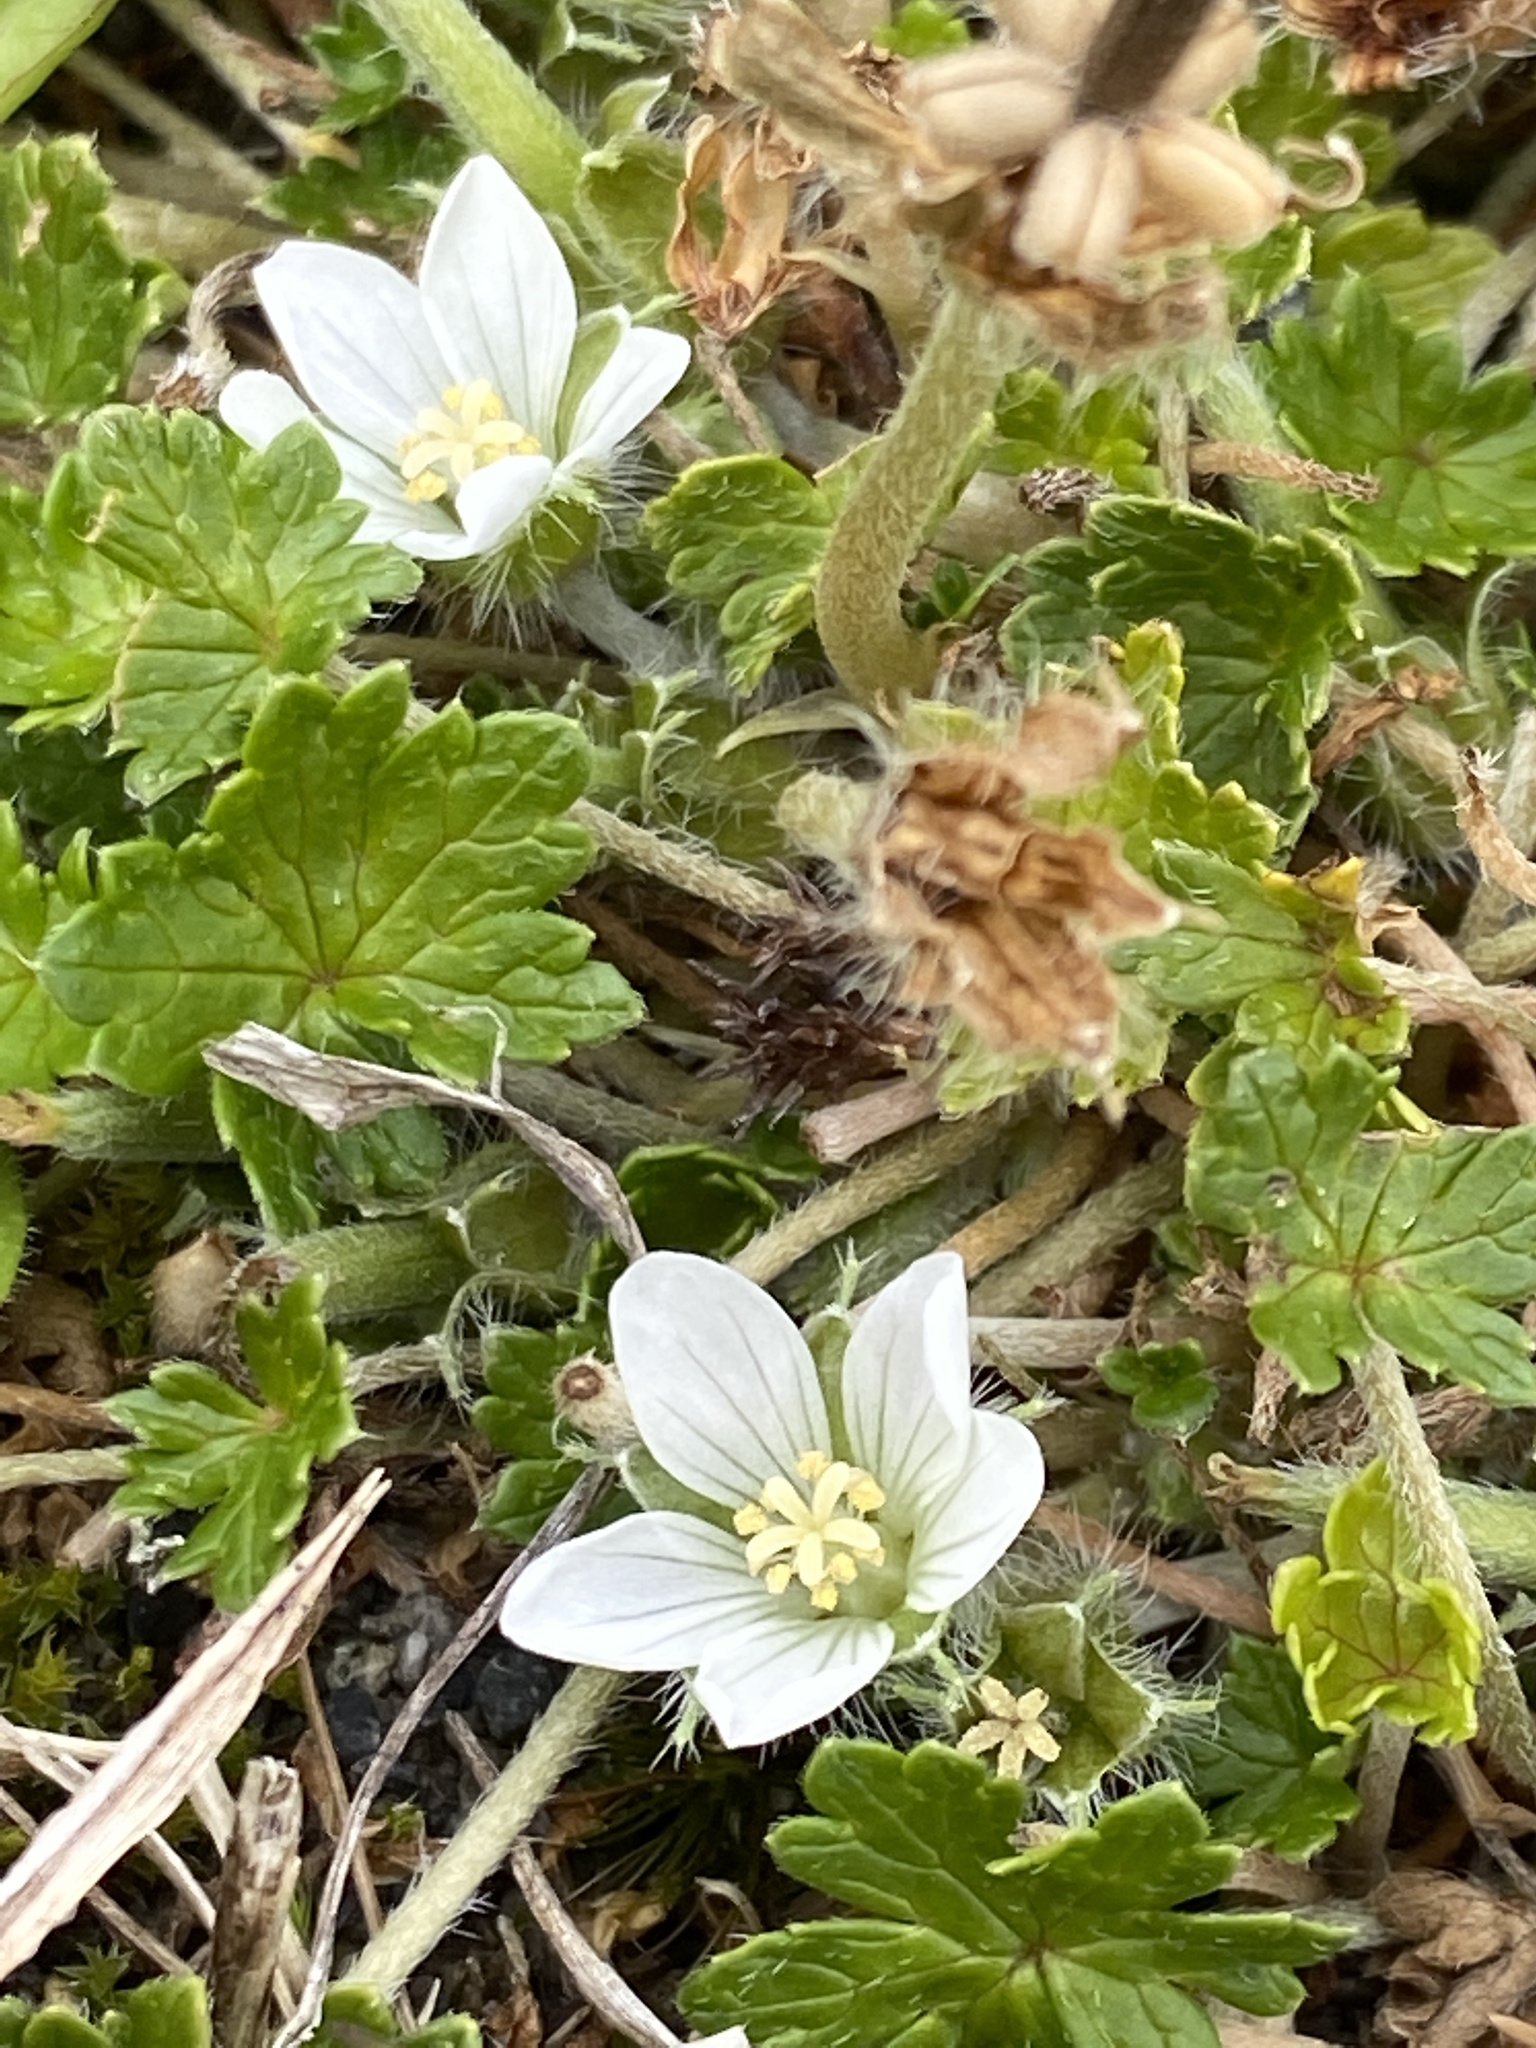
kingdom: Plantae
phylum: Tracheophyta
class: Magnoliopsida
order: Geraniales
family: Geraniaceae
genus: Geranium
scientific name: Geranium brevicaule
